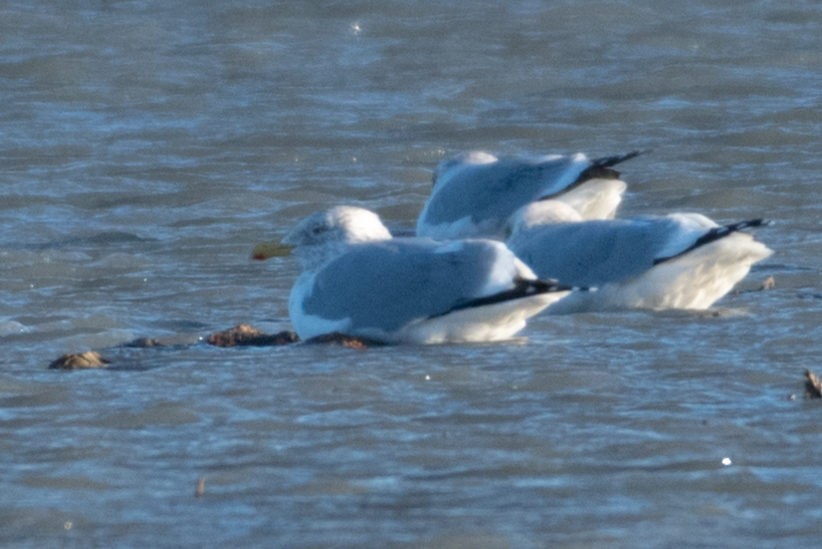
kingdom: Animalia
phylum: Chordata
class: Aves
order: Charadriiformes
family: Laridae
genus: Larus
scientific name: Larus argentatus
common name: Herring gull
